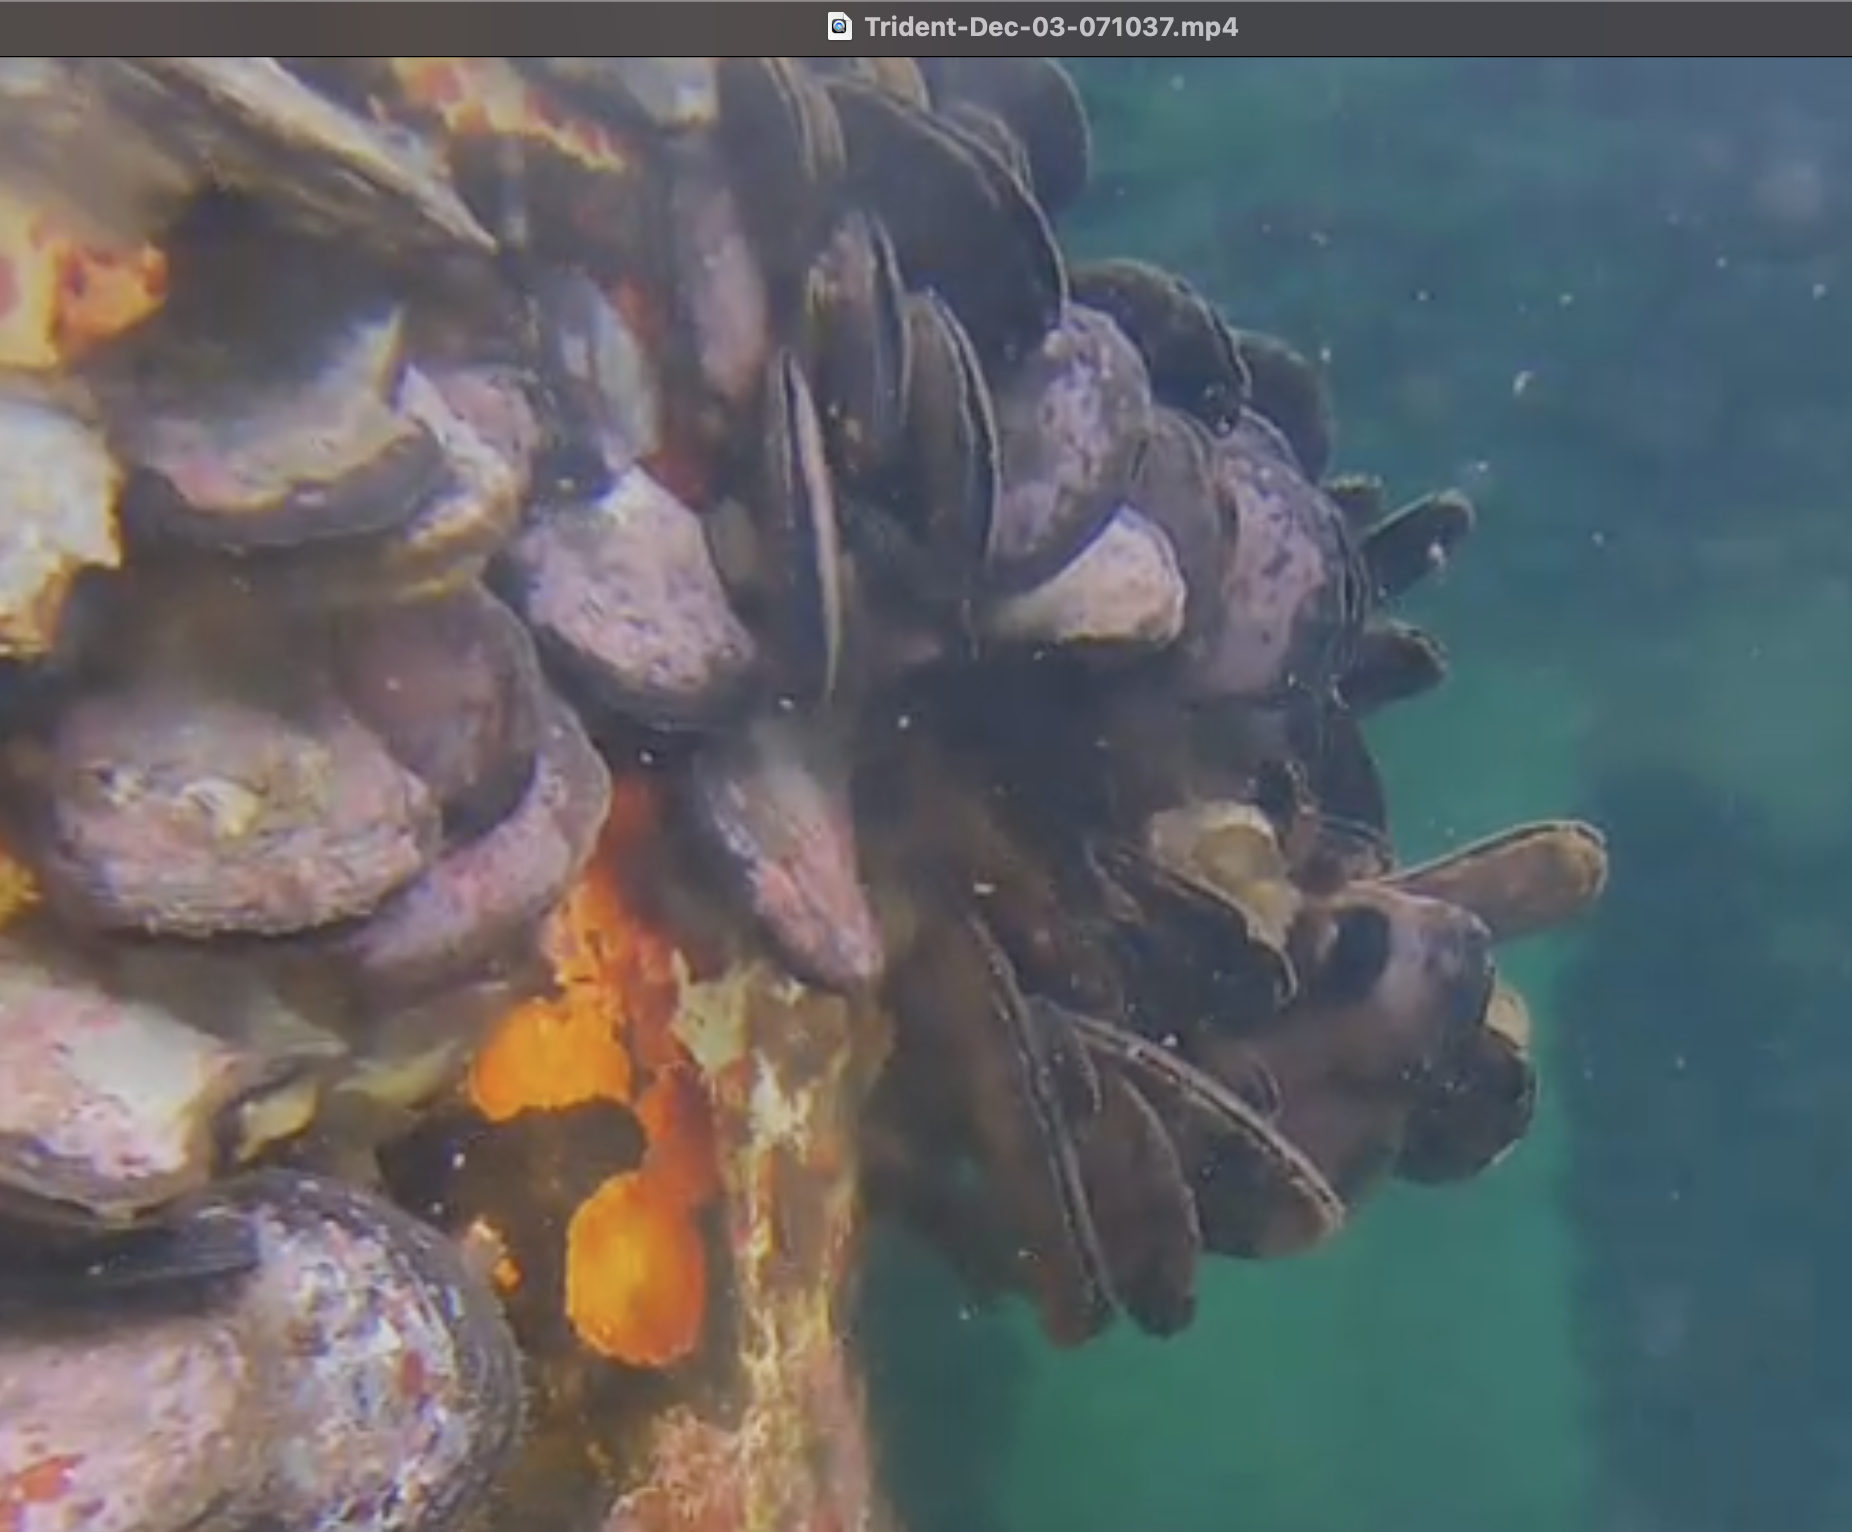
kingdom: Animalia
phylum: Mollusca
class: Bivalvia
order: Ostreida
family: Isognomonidae
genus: Isognomon
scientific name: Isognomon alatus
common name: Flat tree-oyster
